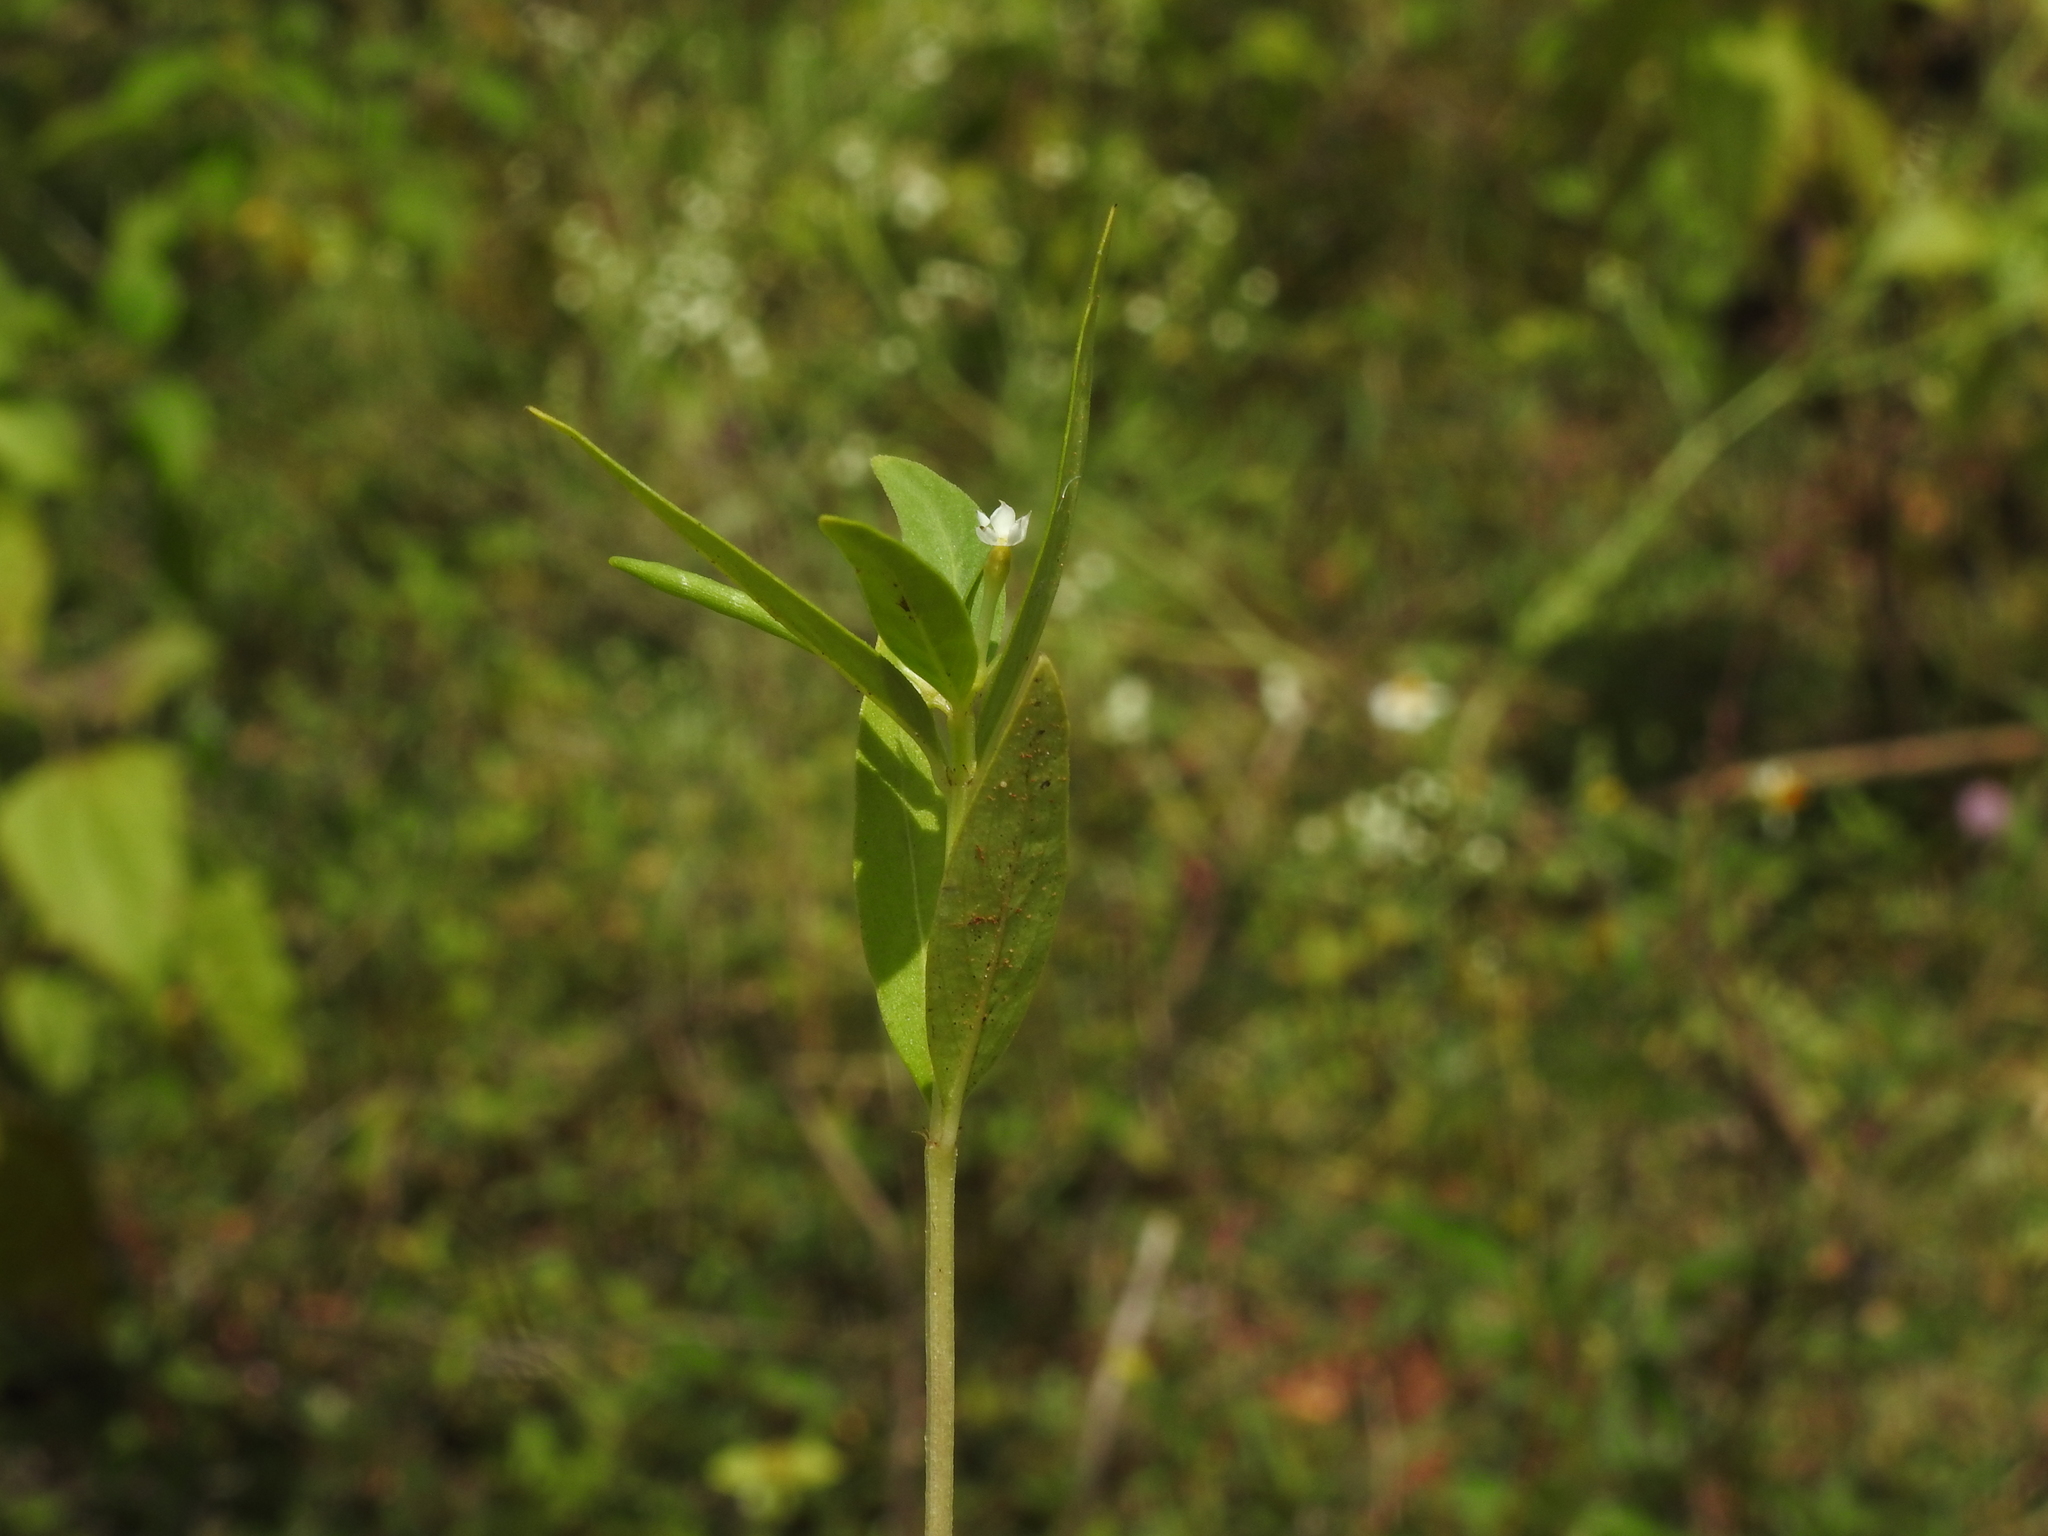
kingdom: Plantae
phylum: Tracheophyta
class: Magnoliopsida
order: Gentianales
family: Apocynaceae
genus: Catharanthus
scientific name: Catharanthus pusillus
